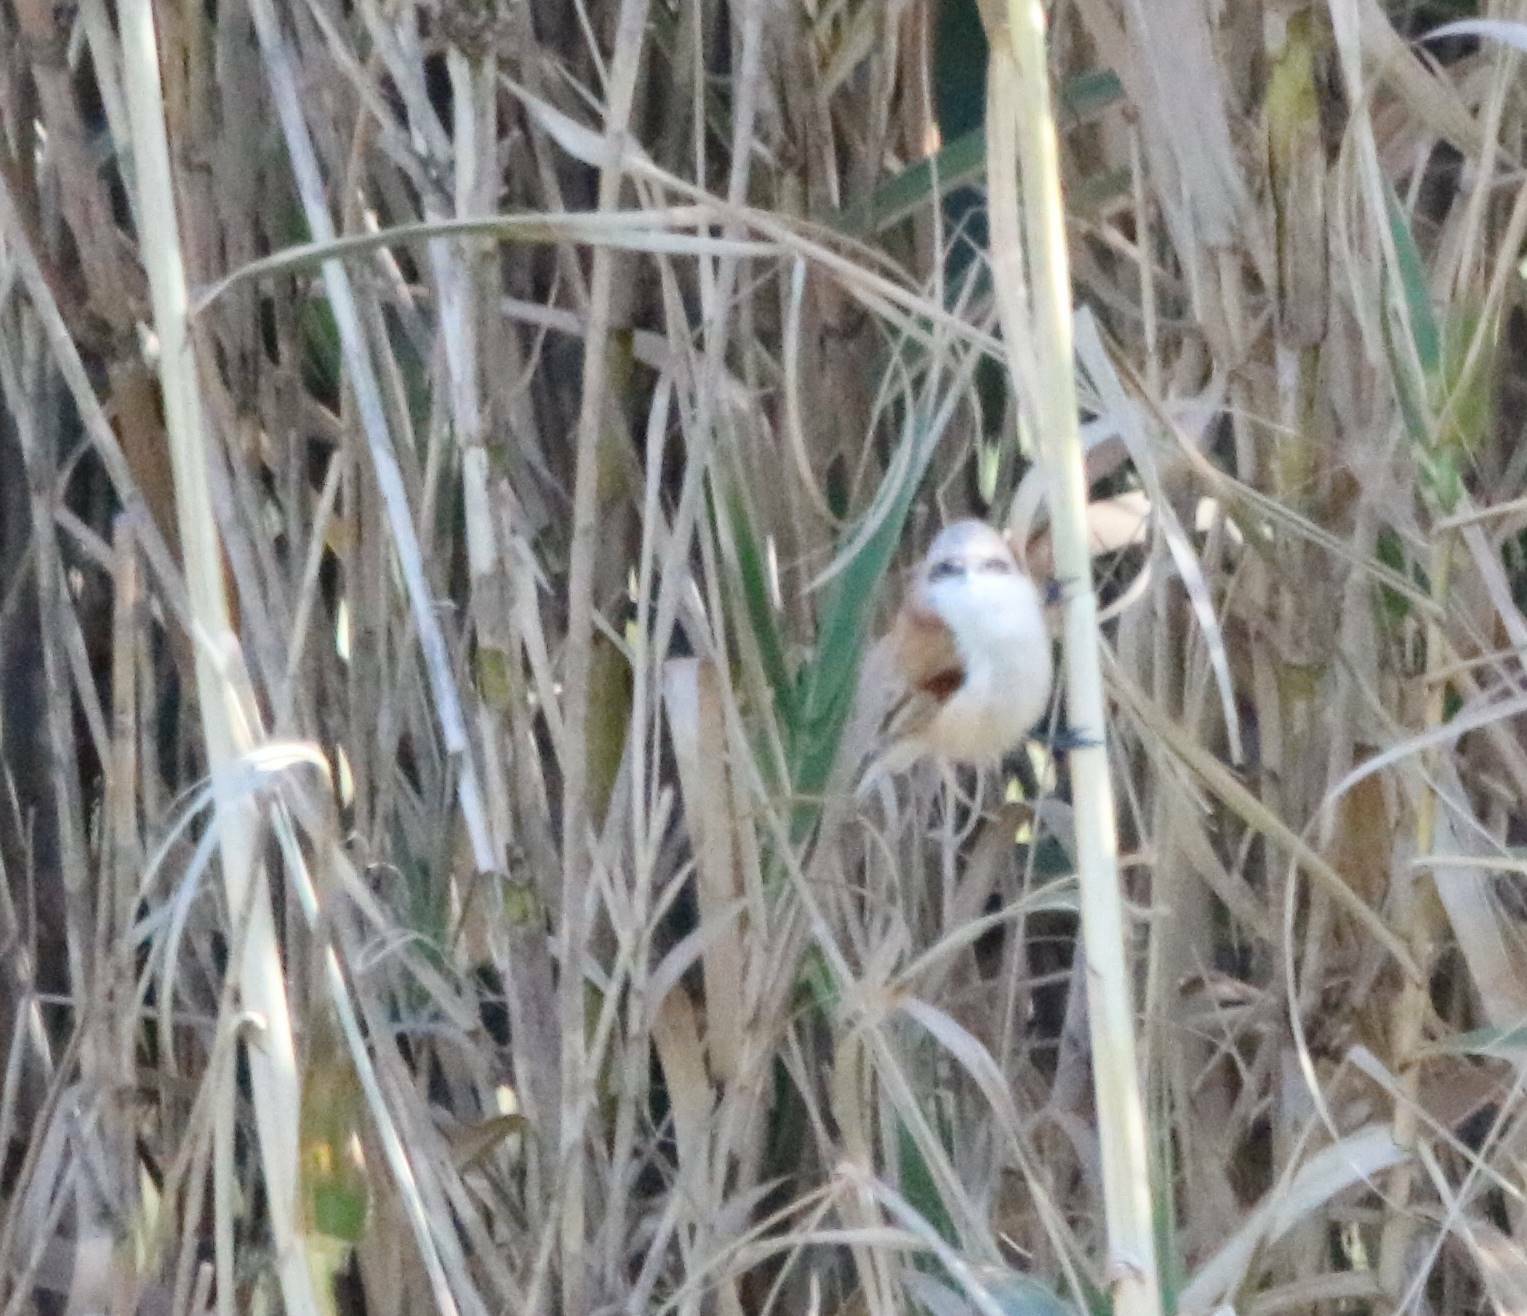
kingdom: Animalia
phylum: Chordata
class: Aves
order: Passeriformes
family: Remizidae
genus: Remiz
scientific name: Remiz pendulinus
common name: Eurasian penduline tit
